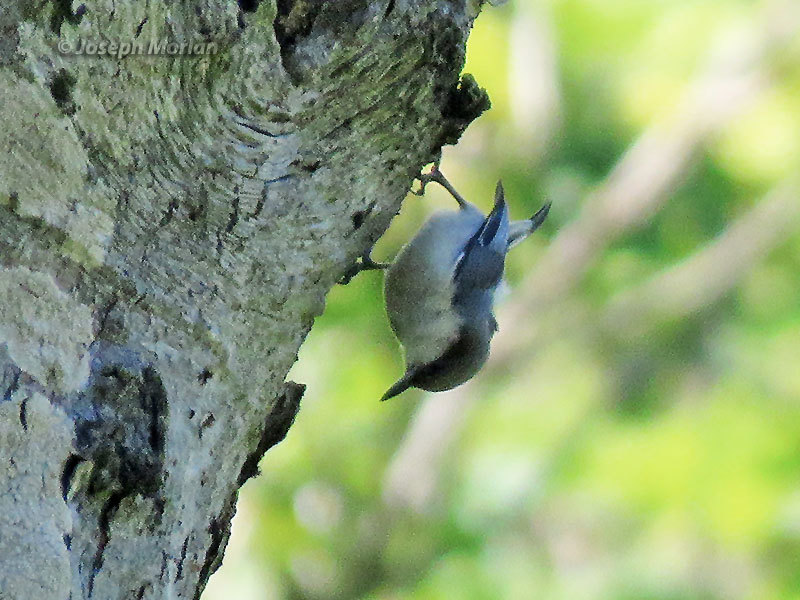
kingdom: Animalia
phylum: Chordata
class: Aves
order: Passeriformes
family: Sittidae
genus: Sitta
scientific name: Sitta pygmaea
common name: Pygmy nuthatch
